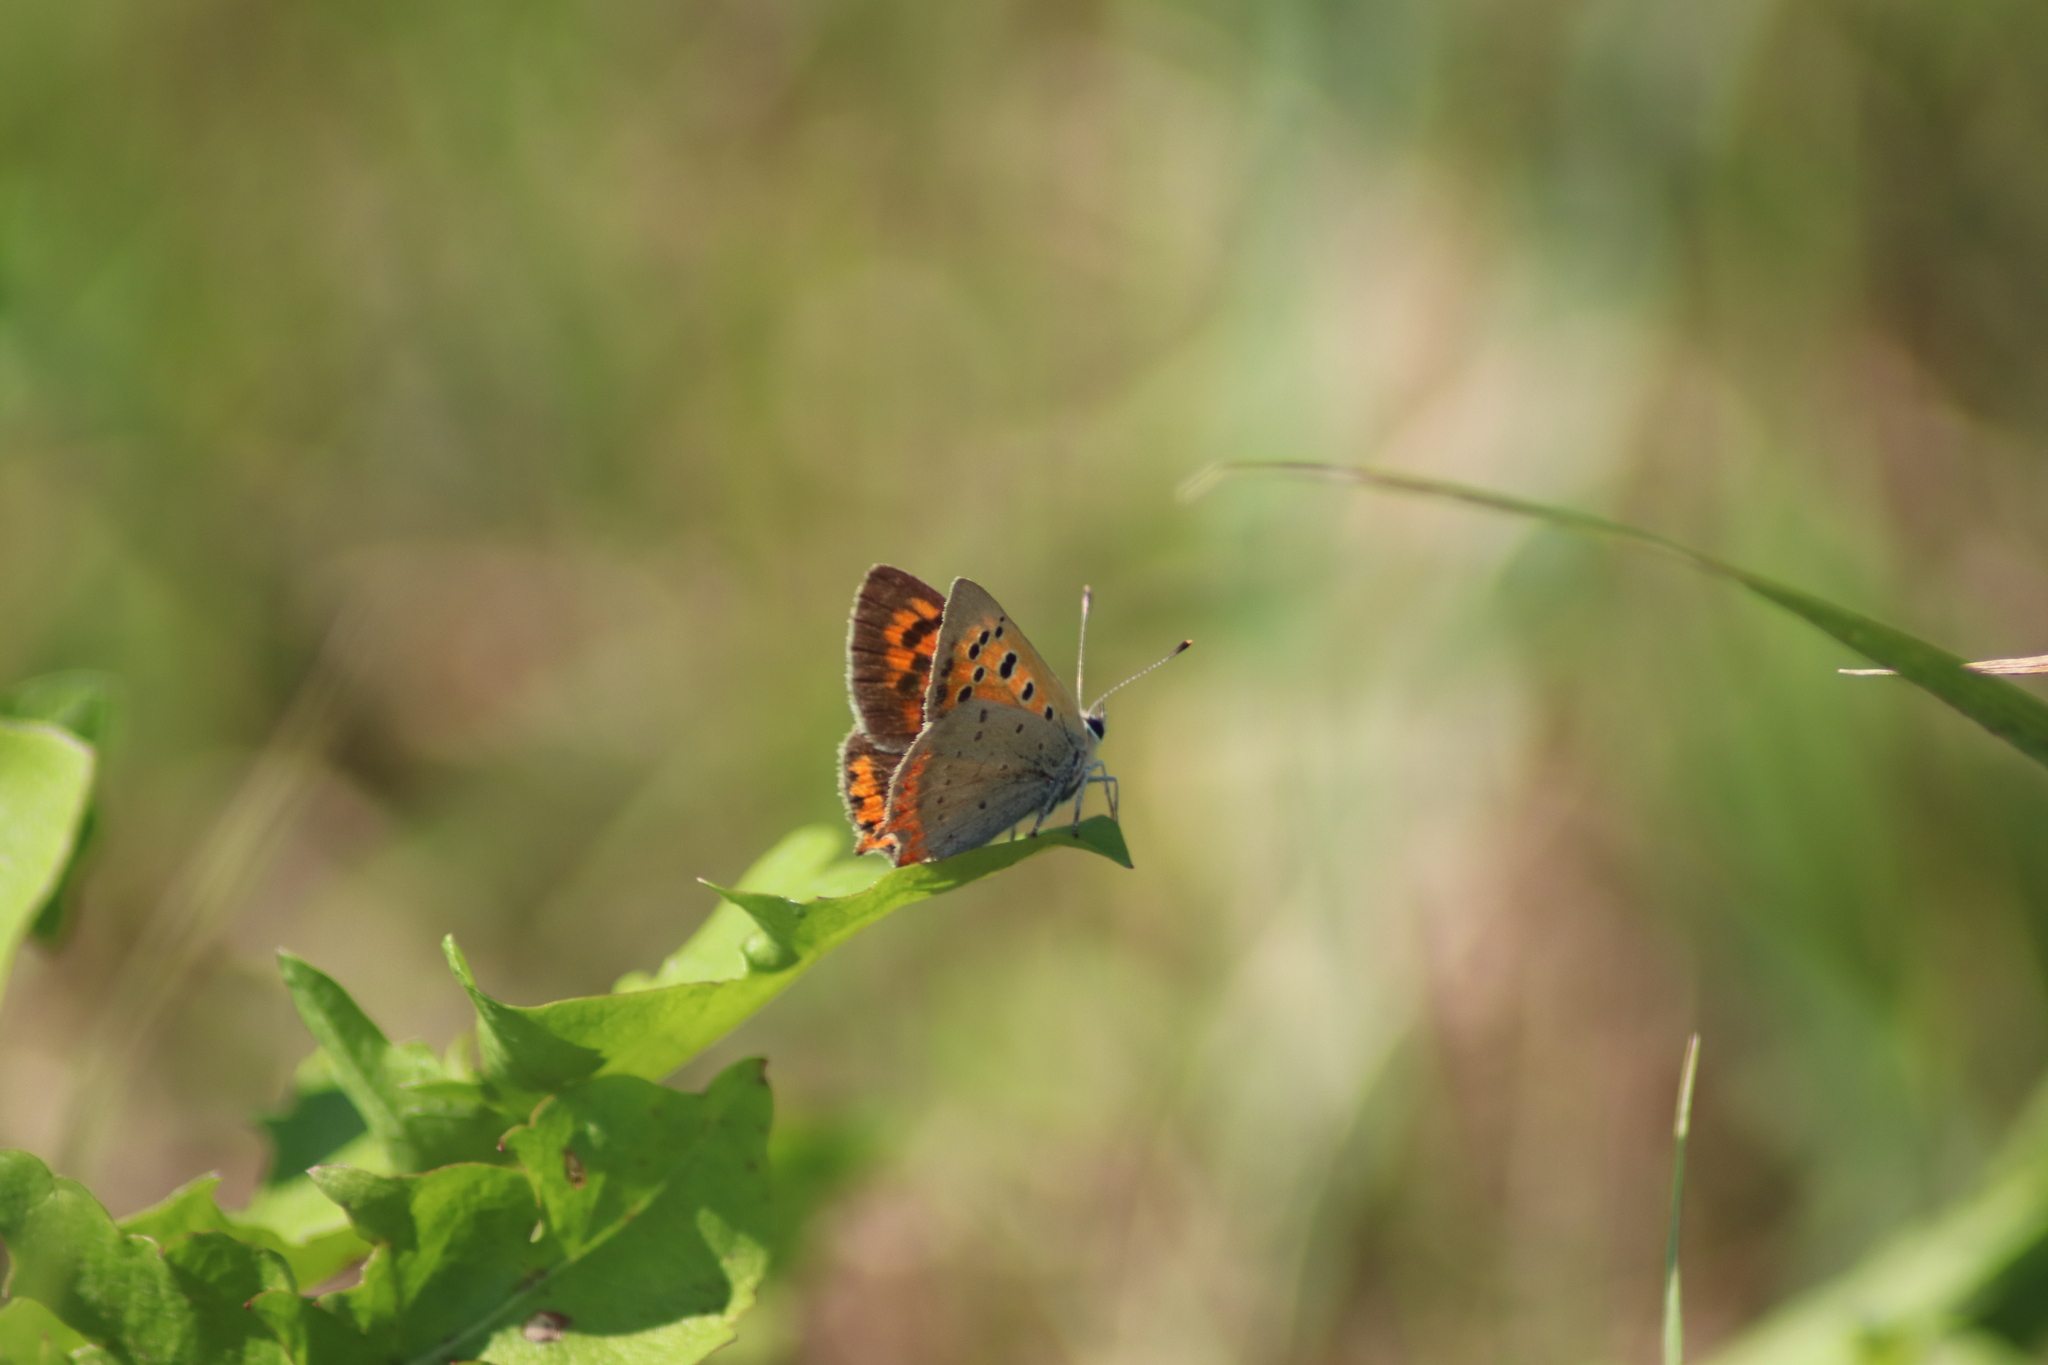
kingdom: Animalia
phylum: Arthropoda
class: Insecta
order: Lepidoptera
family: Lycaenidae
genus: Lycaena
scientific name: Lycaena phlaeas
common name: Small copper
